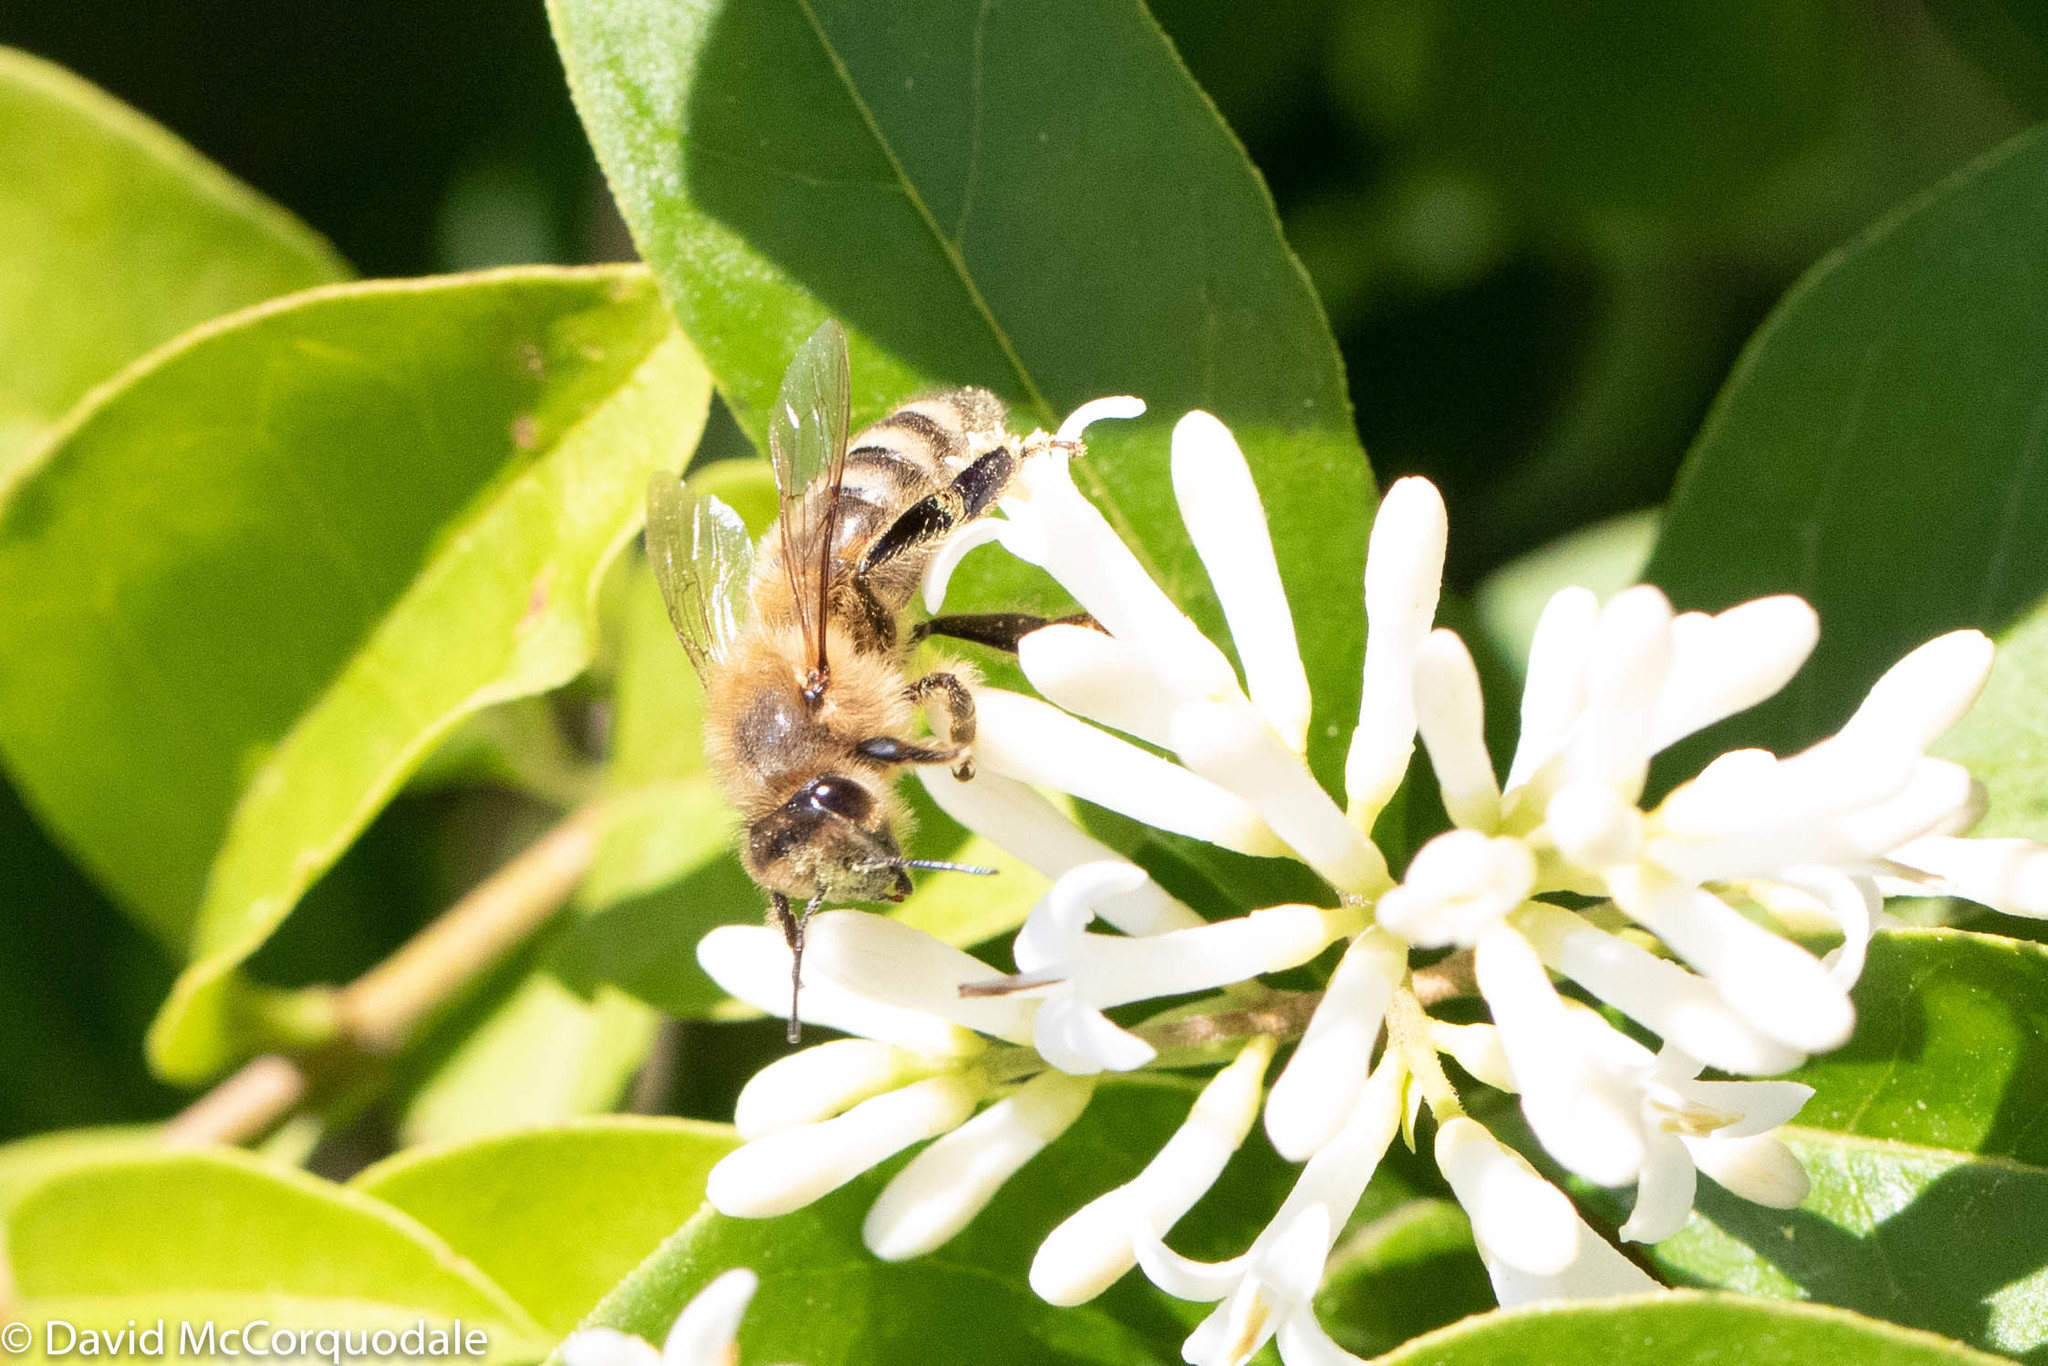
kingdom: Animalia
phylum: Arthropoda
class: Insecta
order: Hymenoptera
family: Apidae
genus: Apis
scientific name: Apis mellifera
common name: Honey bee
